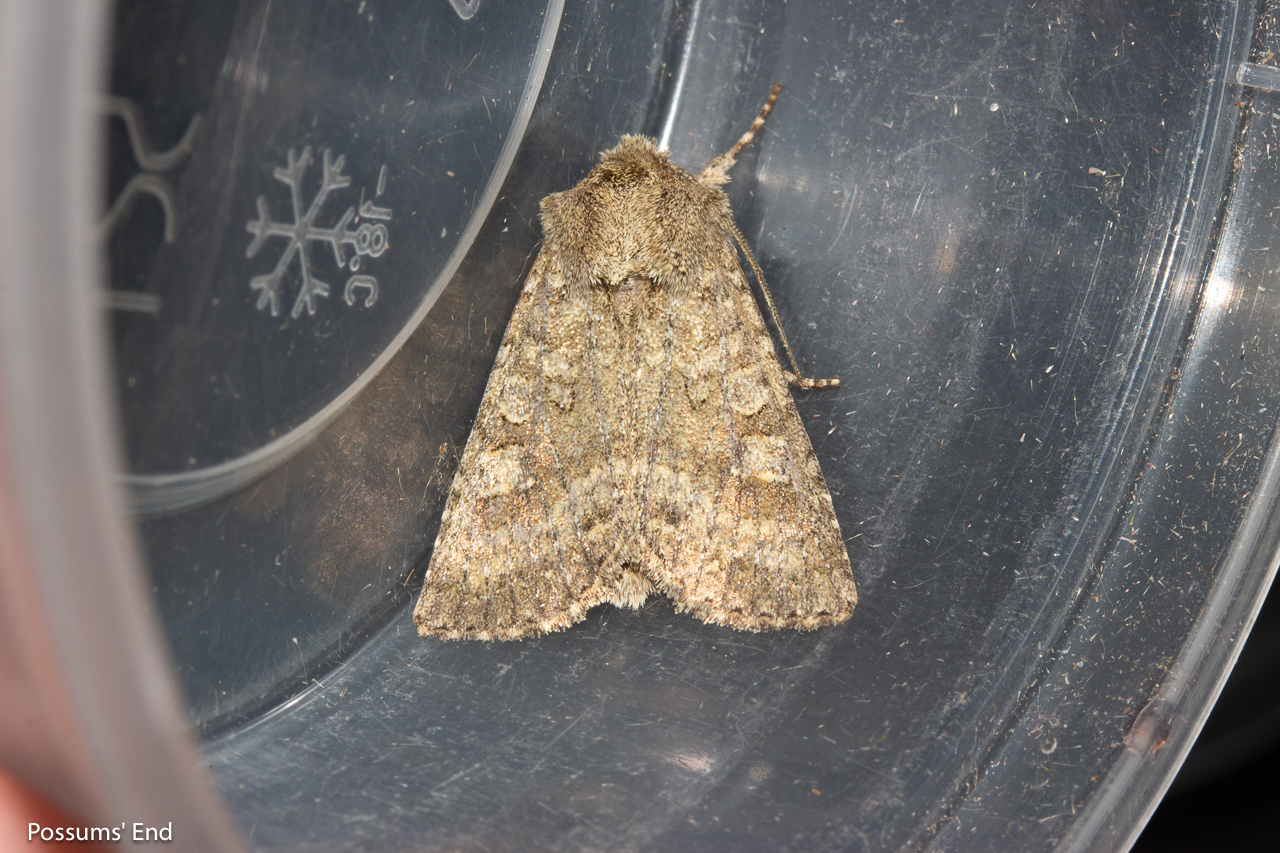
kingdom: Animalia
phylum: Arthropoda
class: Insecta
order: Lepidoptera
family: Noctuidae
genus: Ichneutica
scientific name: Ichneutica barbara
